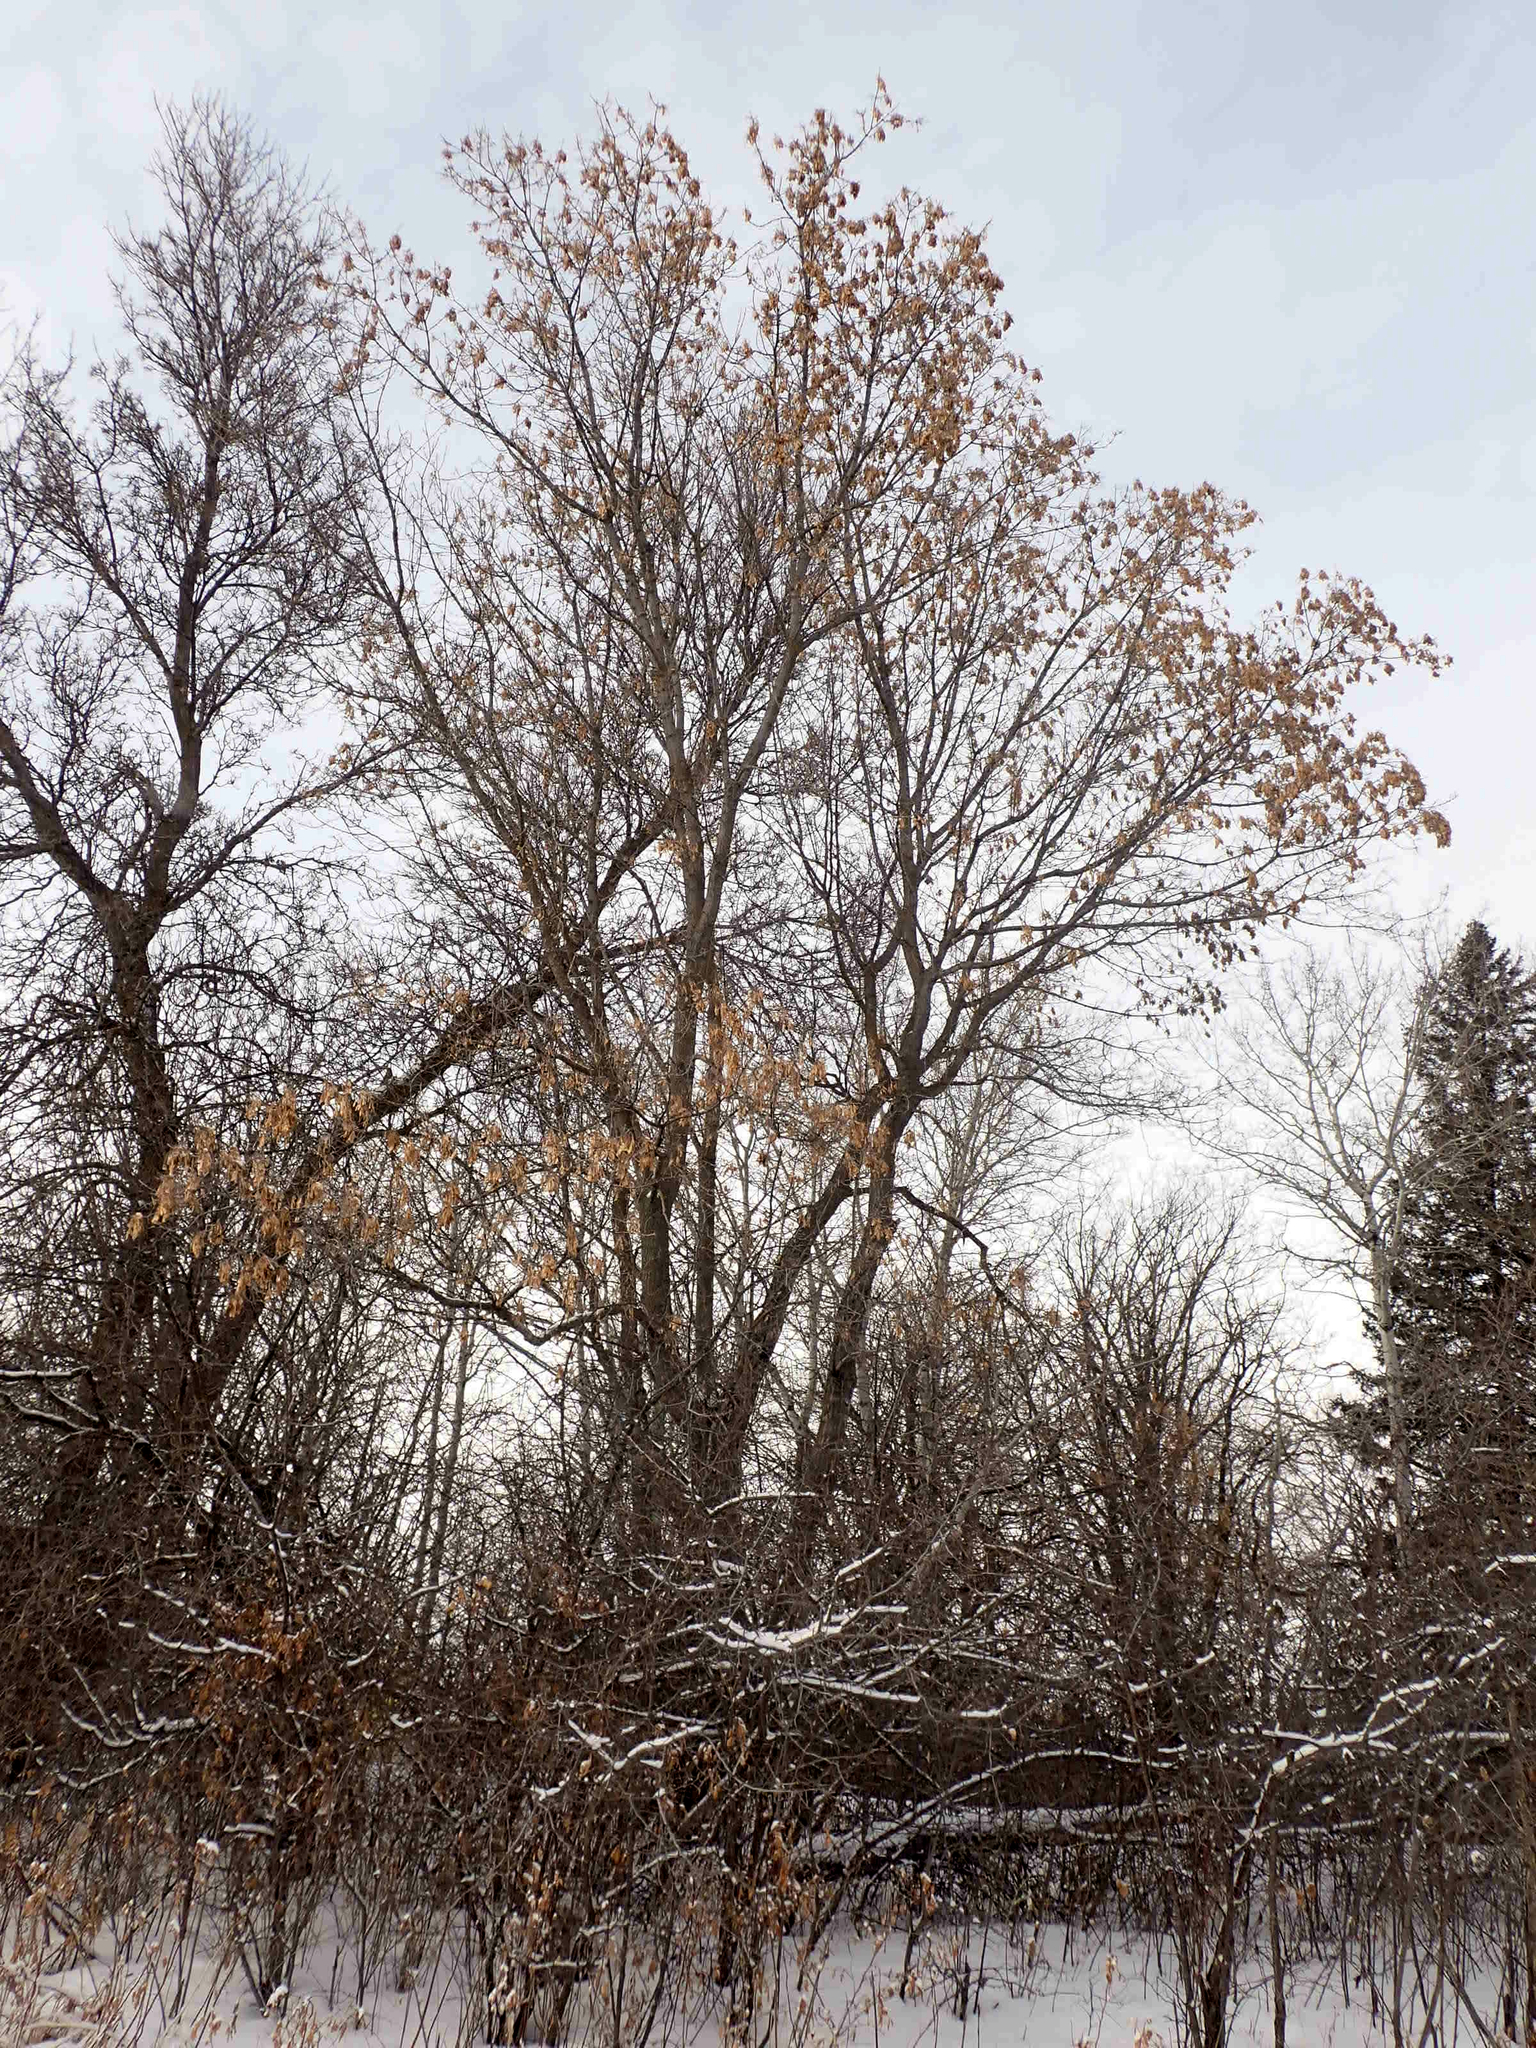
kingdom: Plantae
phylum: Tracheophyta
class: Magnoliopsida
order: Sapindales
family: Sapindaceae
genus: Acer
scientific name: Acer negundo
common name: Ashleaf maple
